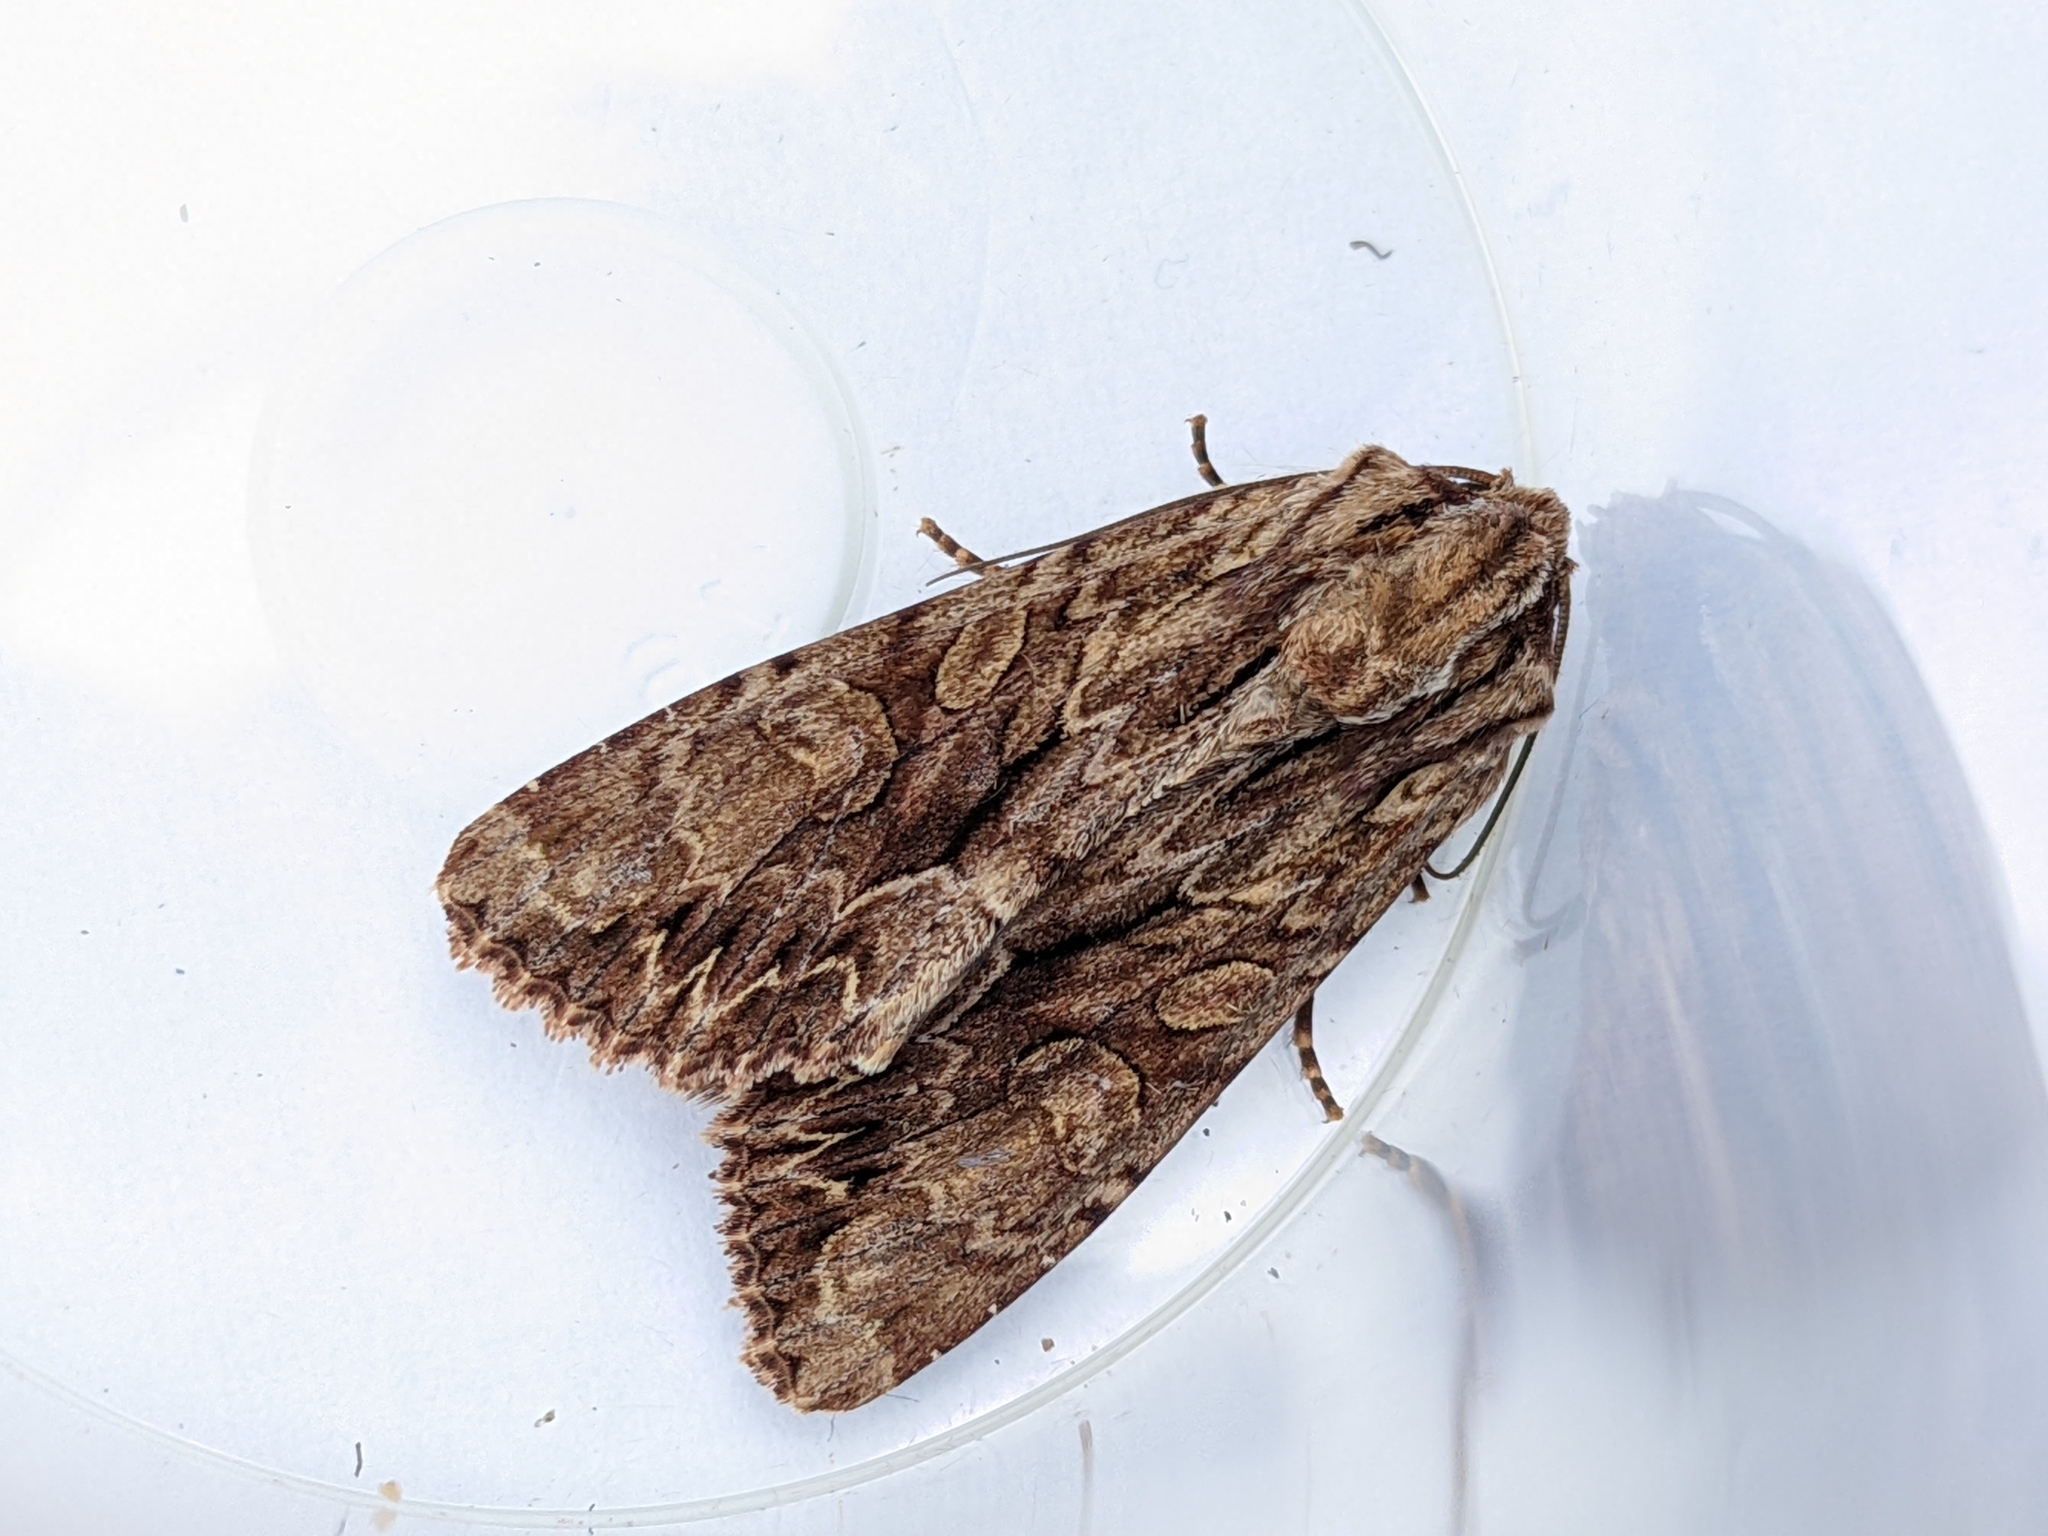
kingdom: Animalia
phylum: Arthropoda
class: Insecta
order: Lepidoptera
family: Noctuidae
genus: Apamea
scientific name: Apamea monoglypha
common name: Dark arches
